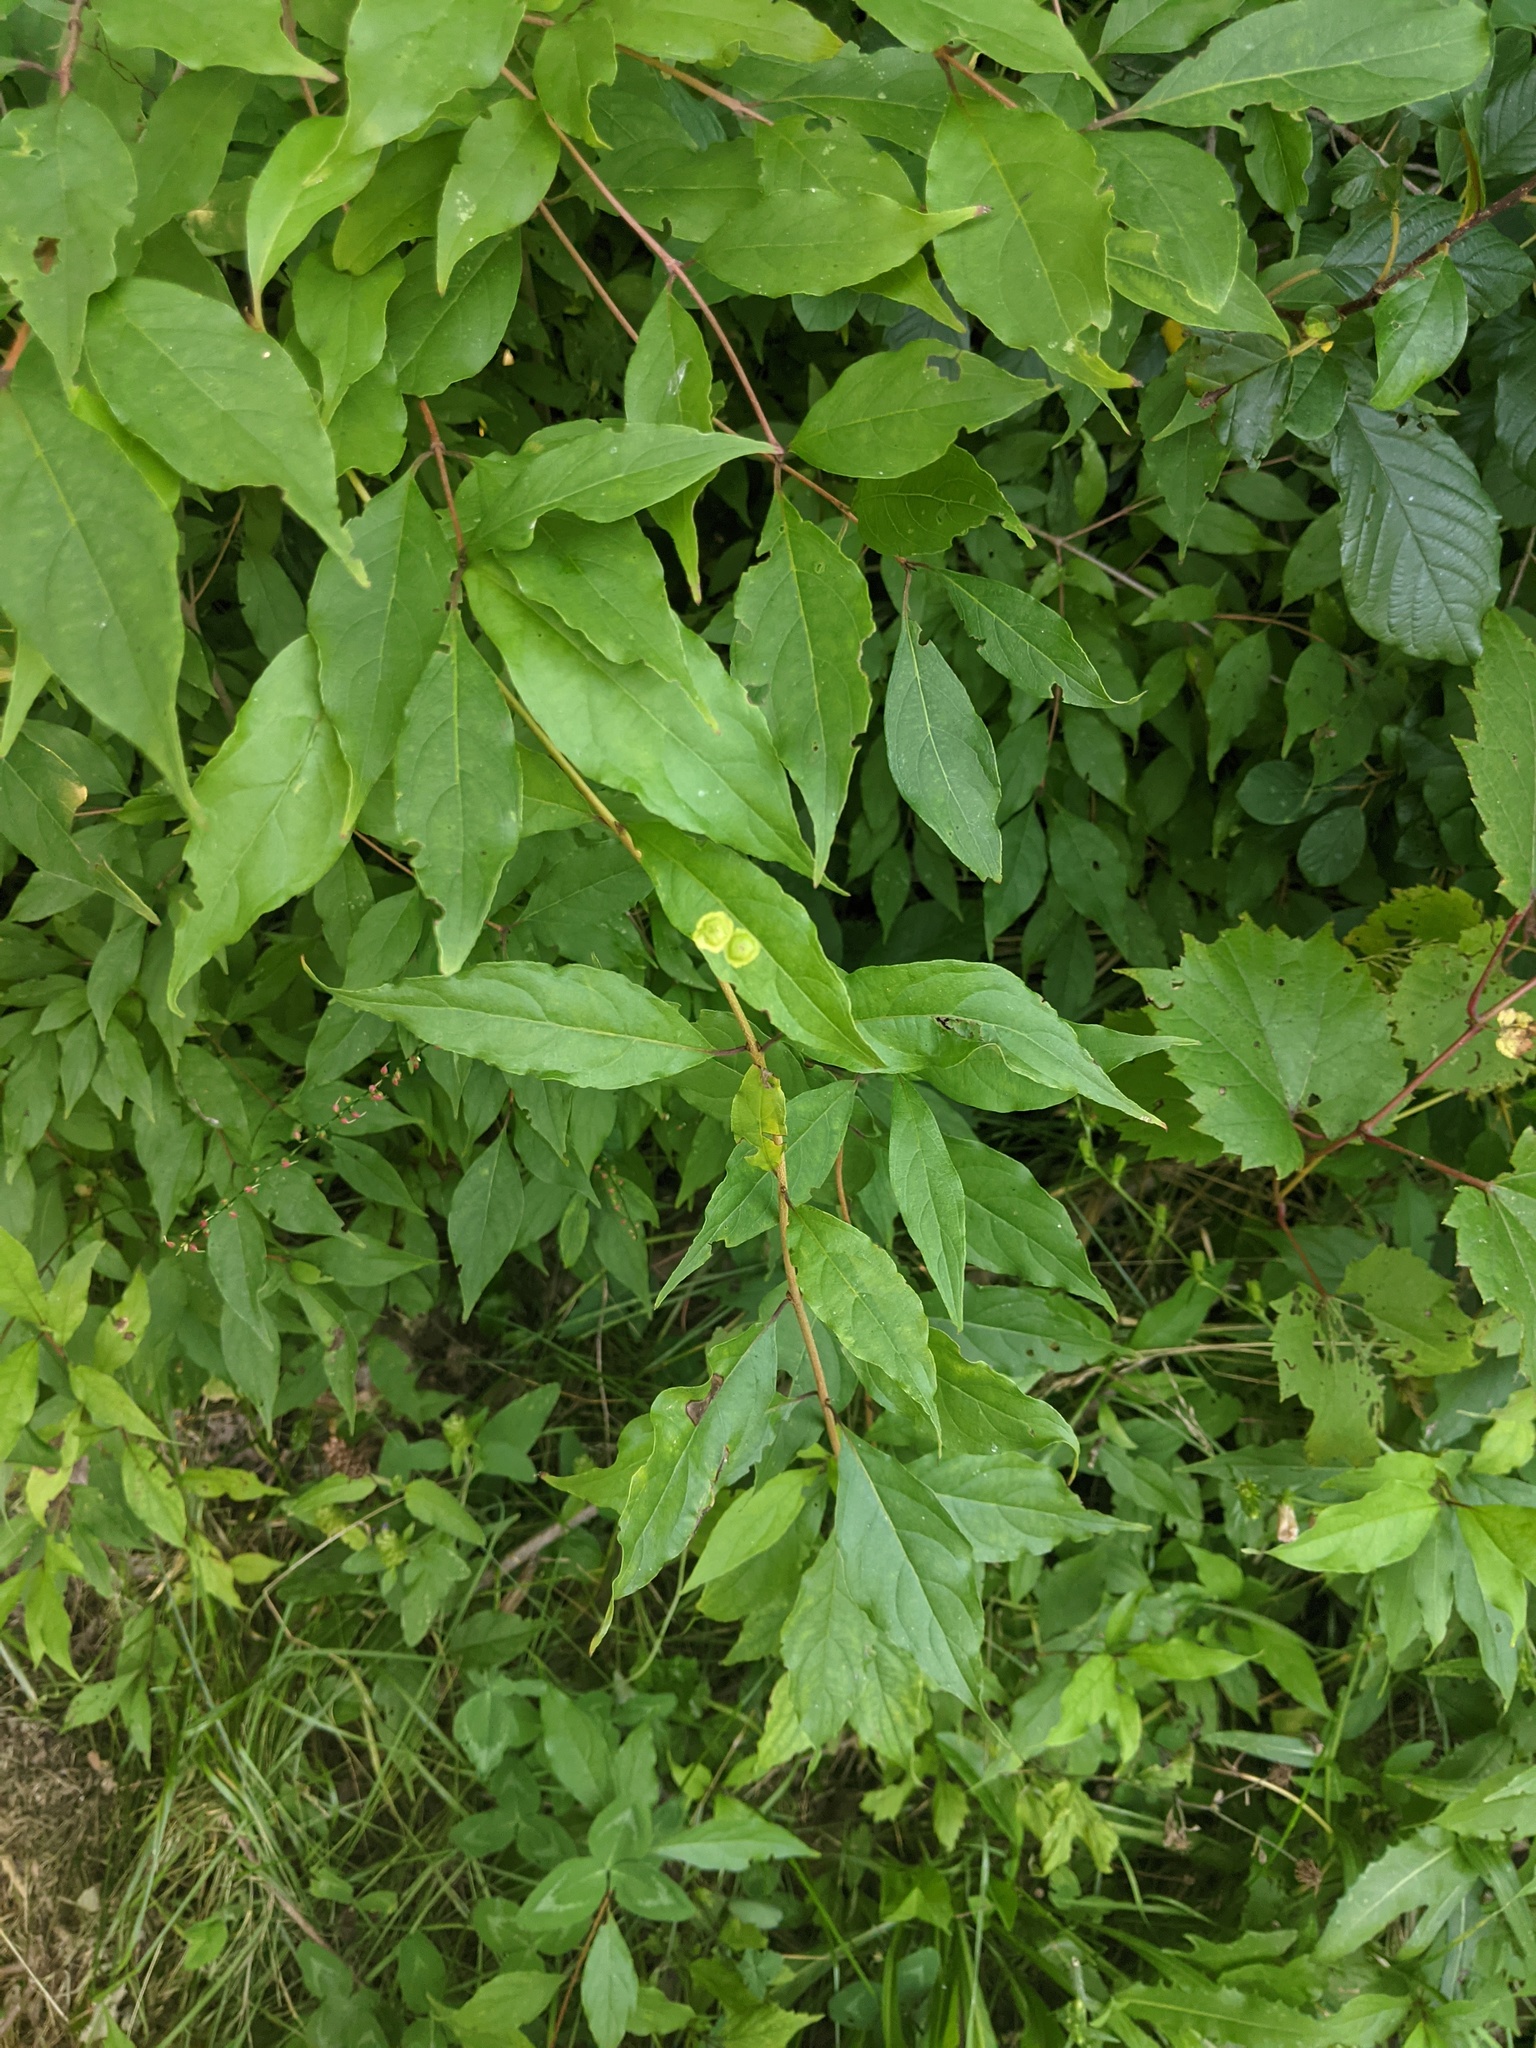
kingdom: Animalia
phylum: Arthropoda
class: Insecta
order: Diptera
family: Cecidomyiidae
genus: Parallelodiplosis
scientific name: Parallelodiplosis subtruncata
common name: Dogwood eyespot gall midge
